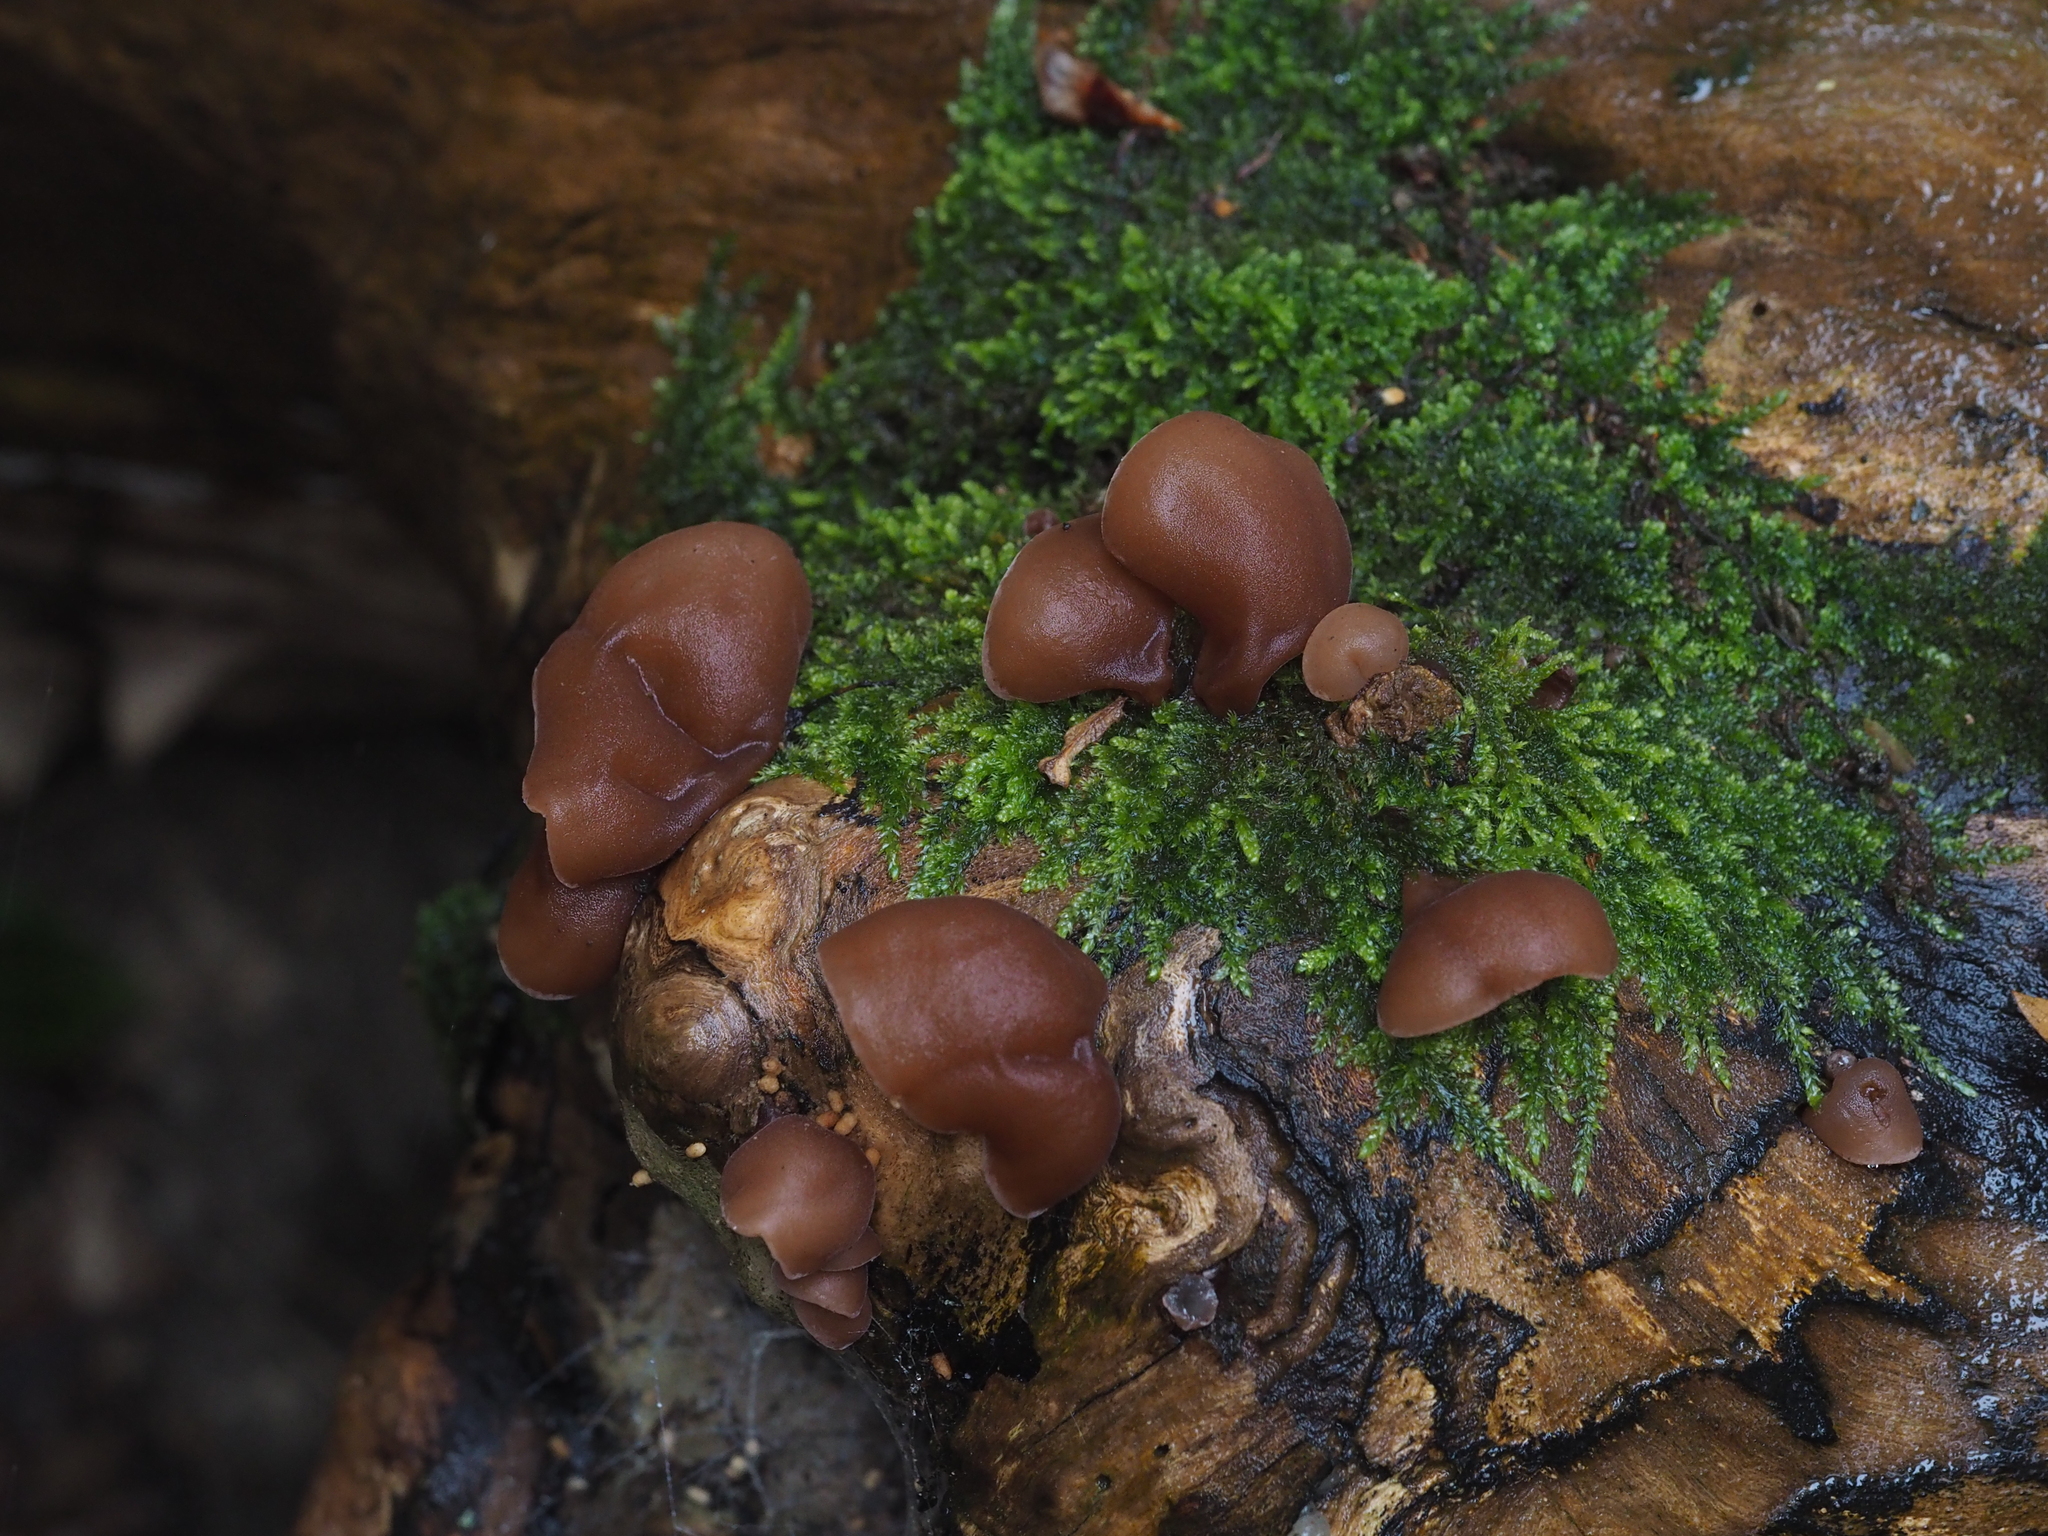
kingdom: Fungi
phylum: Basidiomycota
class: Agaricomycetes
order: Auriculariales
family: Auriculariaceae
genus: Auricularia
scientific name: Auricularia auricula-judae
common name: Jelly ear
